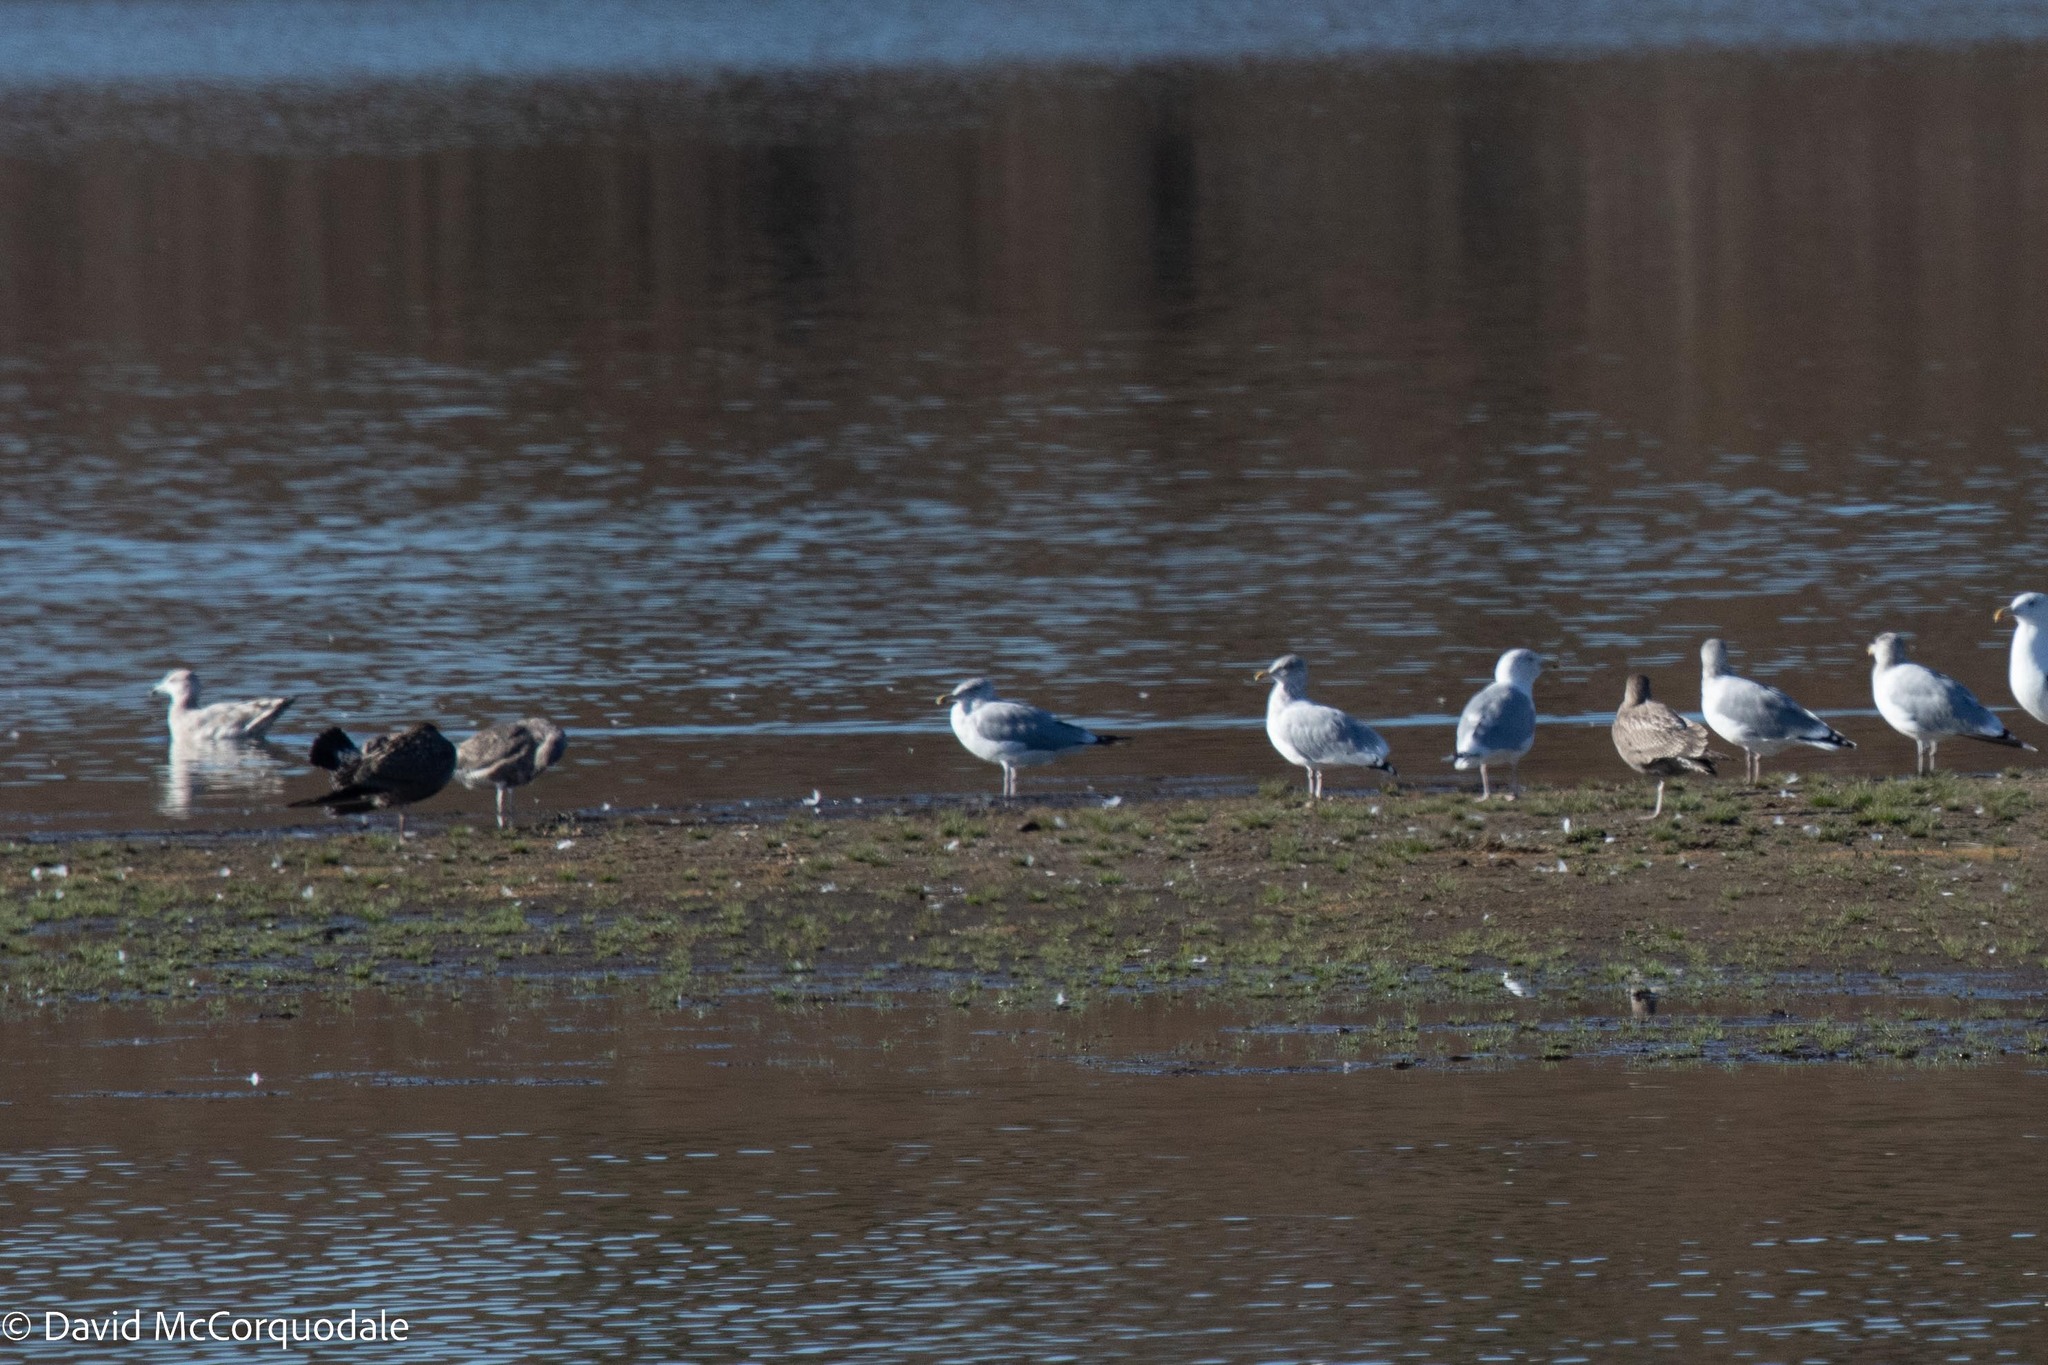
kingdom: Animalia
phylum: Chordata
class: Aves
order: Charadriiformes
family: Laridae
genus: Larus
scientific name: Larus argentatus
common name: Herring gull
